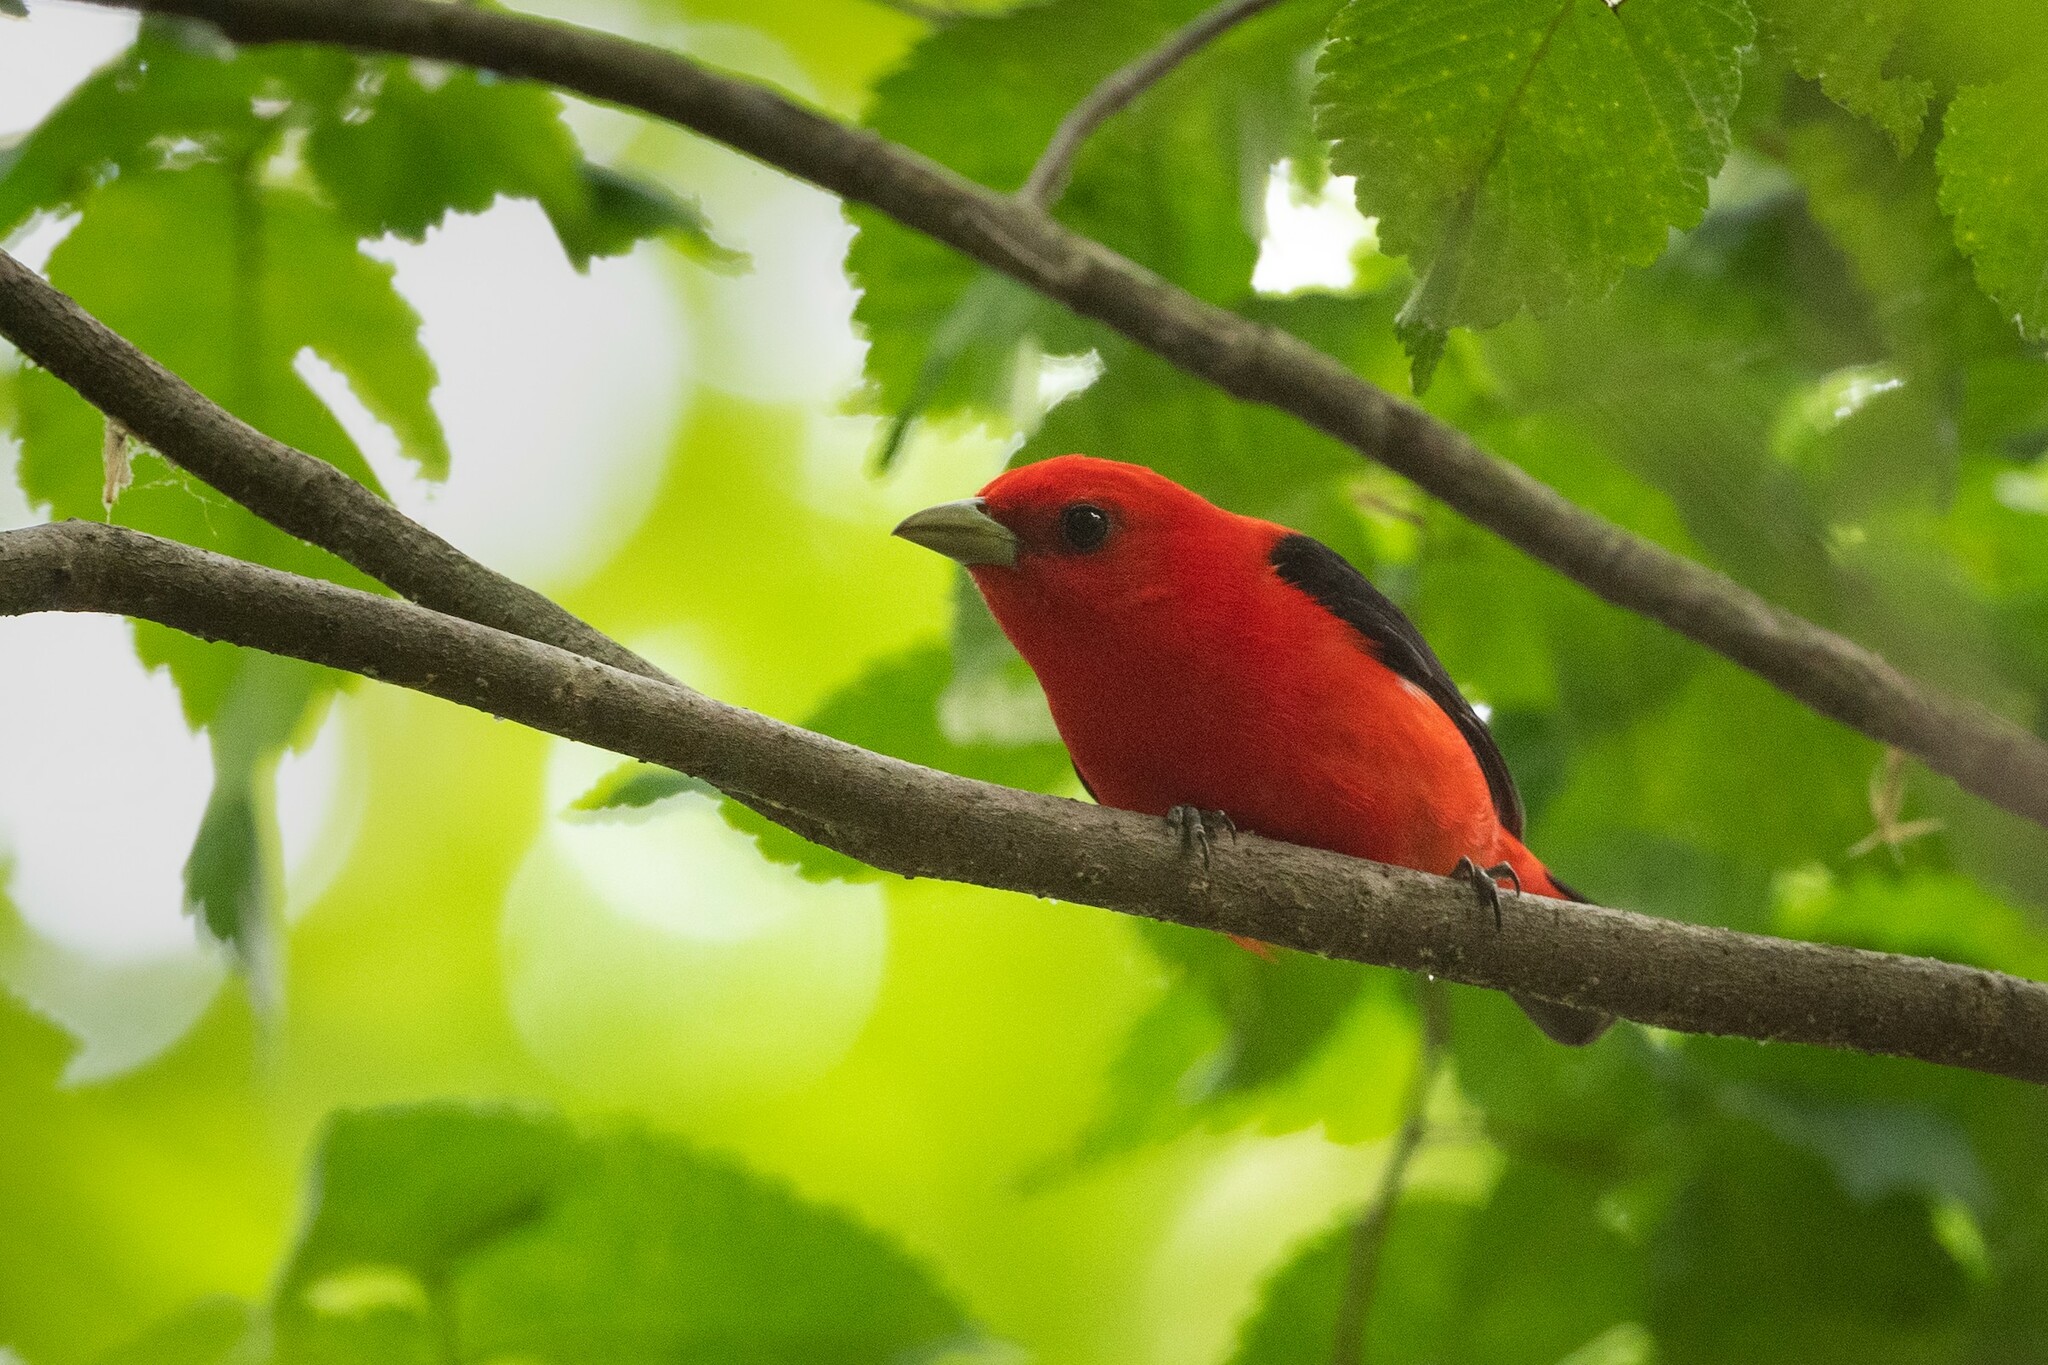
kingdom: Animalia
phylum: Chordata
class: Aves
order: Passeriformes
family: Cardinalidae
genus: Piranga
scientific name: Piranga olivacea
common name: Scarlet tanager
